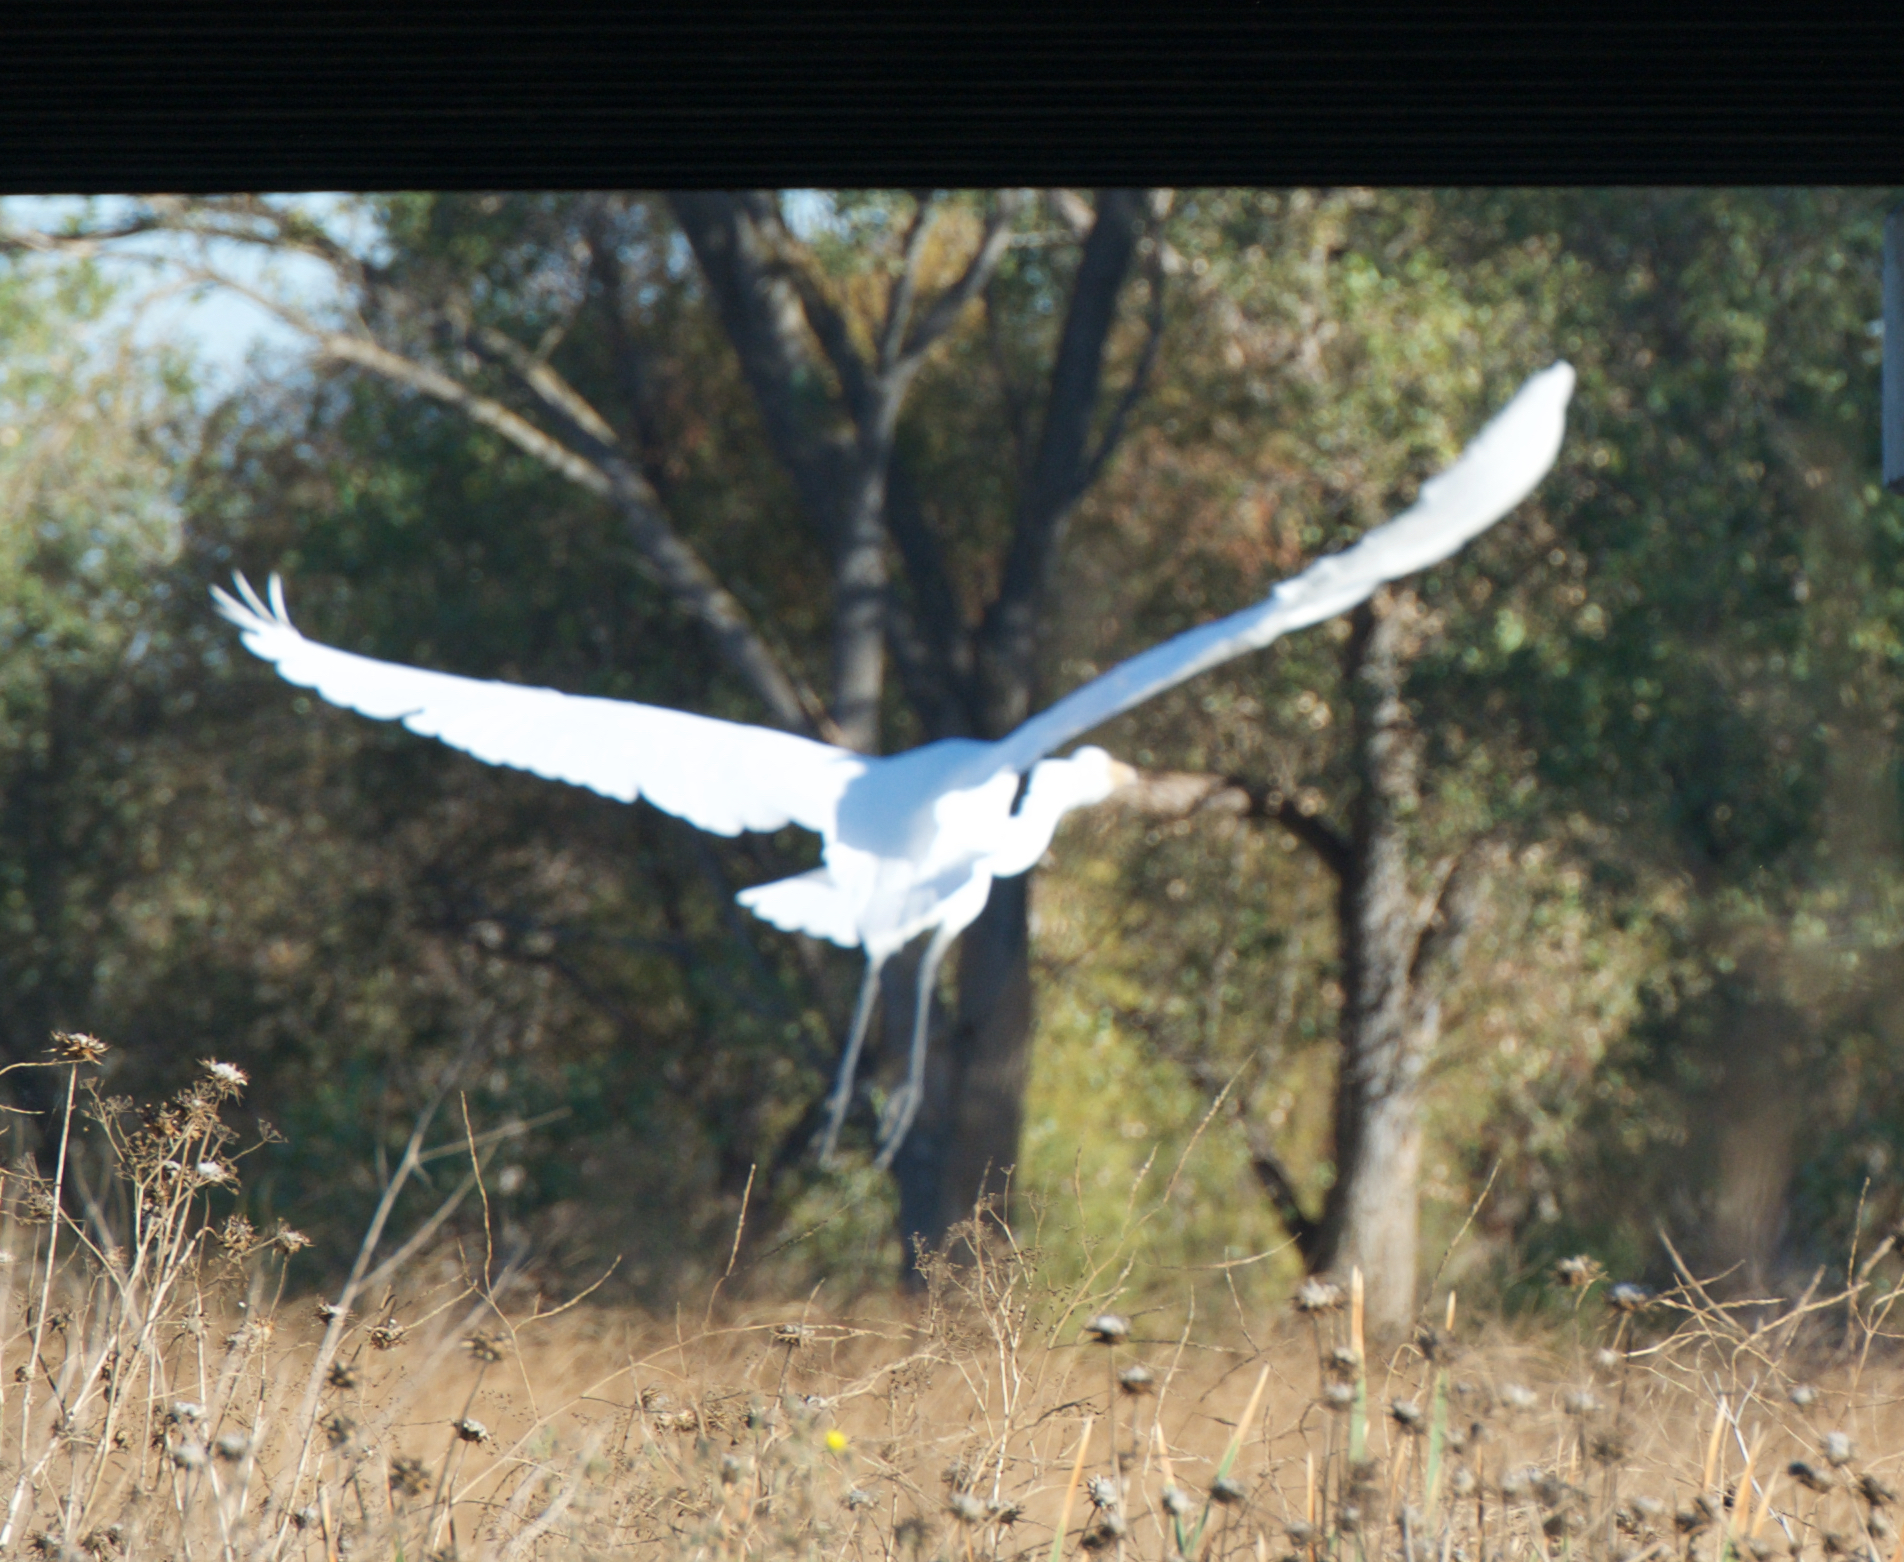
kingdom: Animalia
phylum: Chordata
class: Aves
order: Pelecaniformes
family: Ardeidae
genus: Ardea
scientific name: Ardea alba
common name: Great egret
